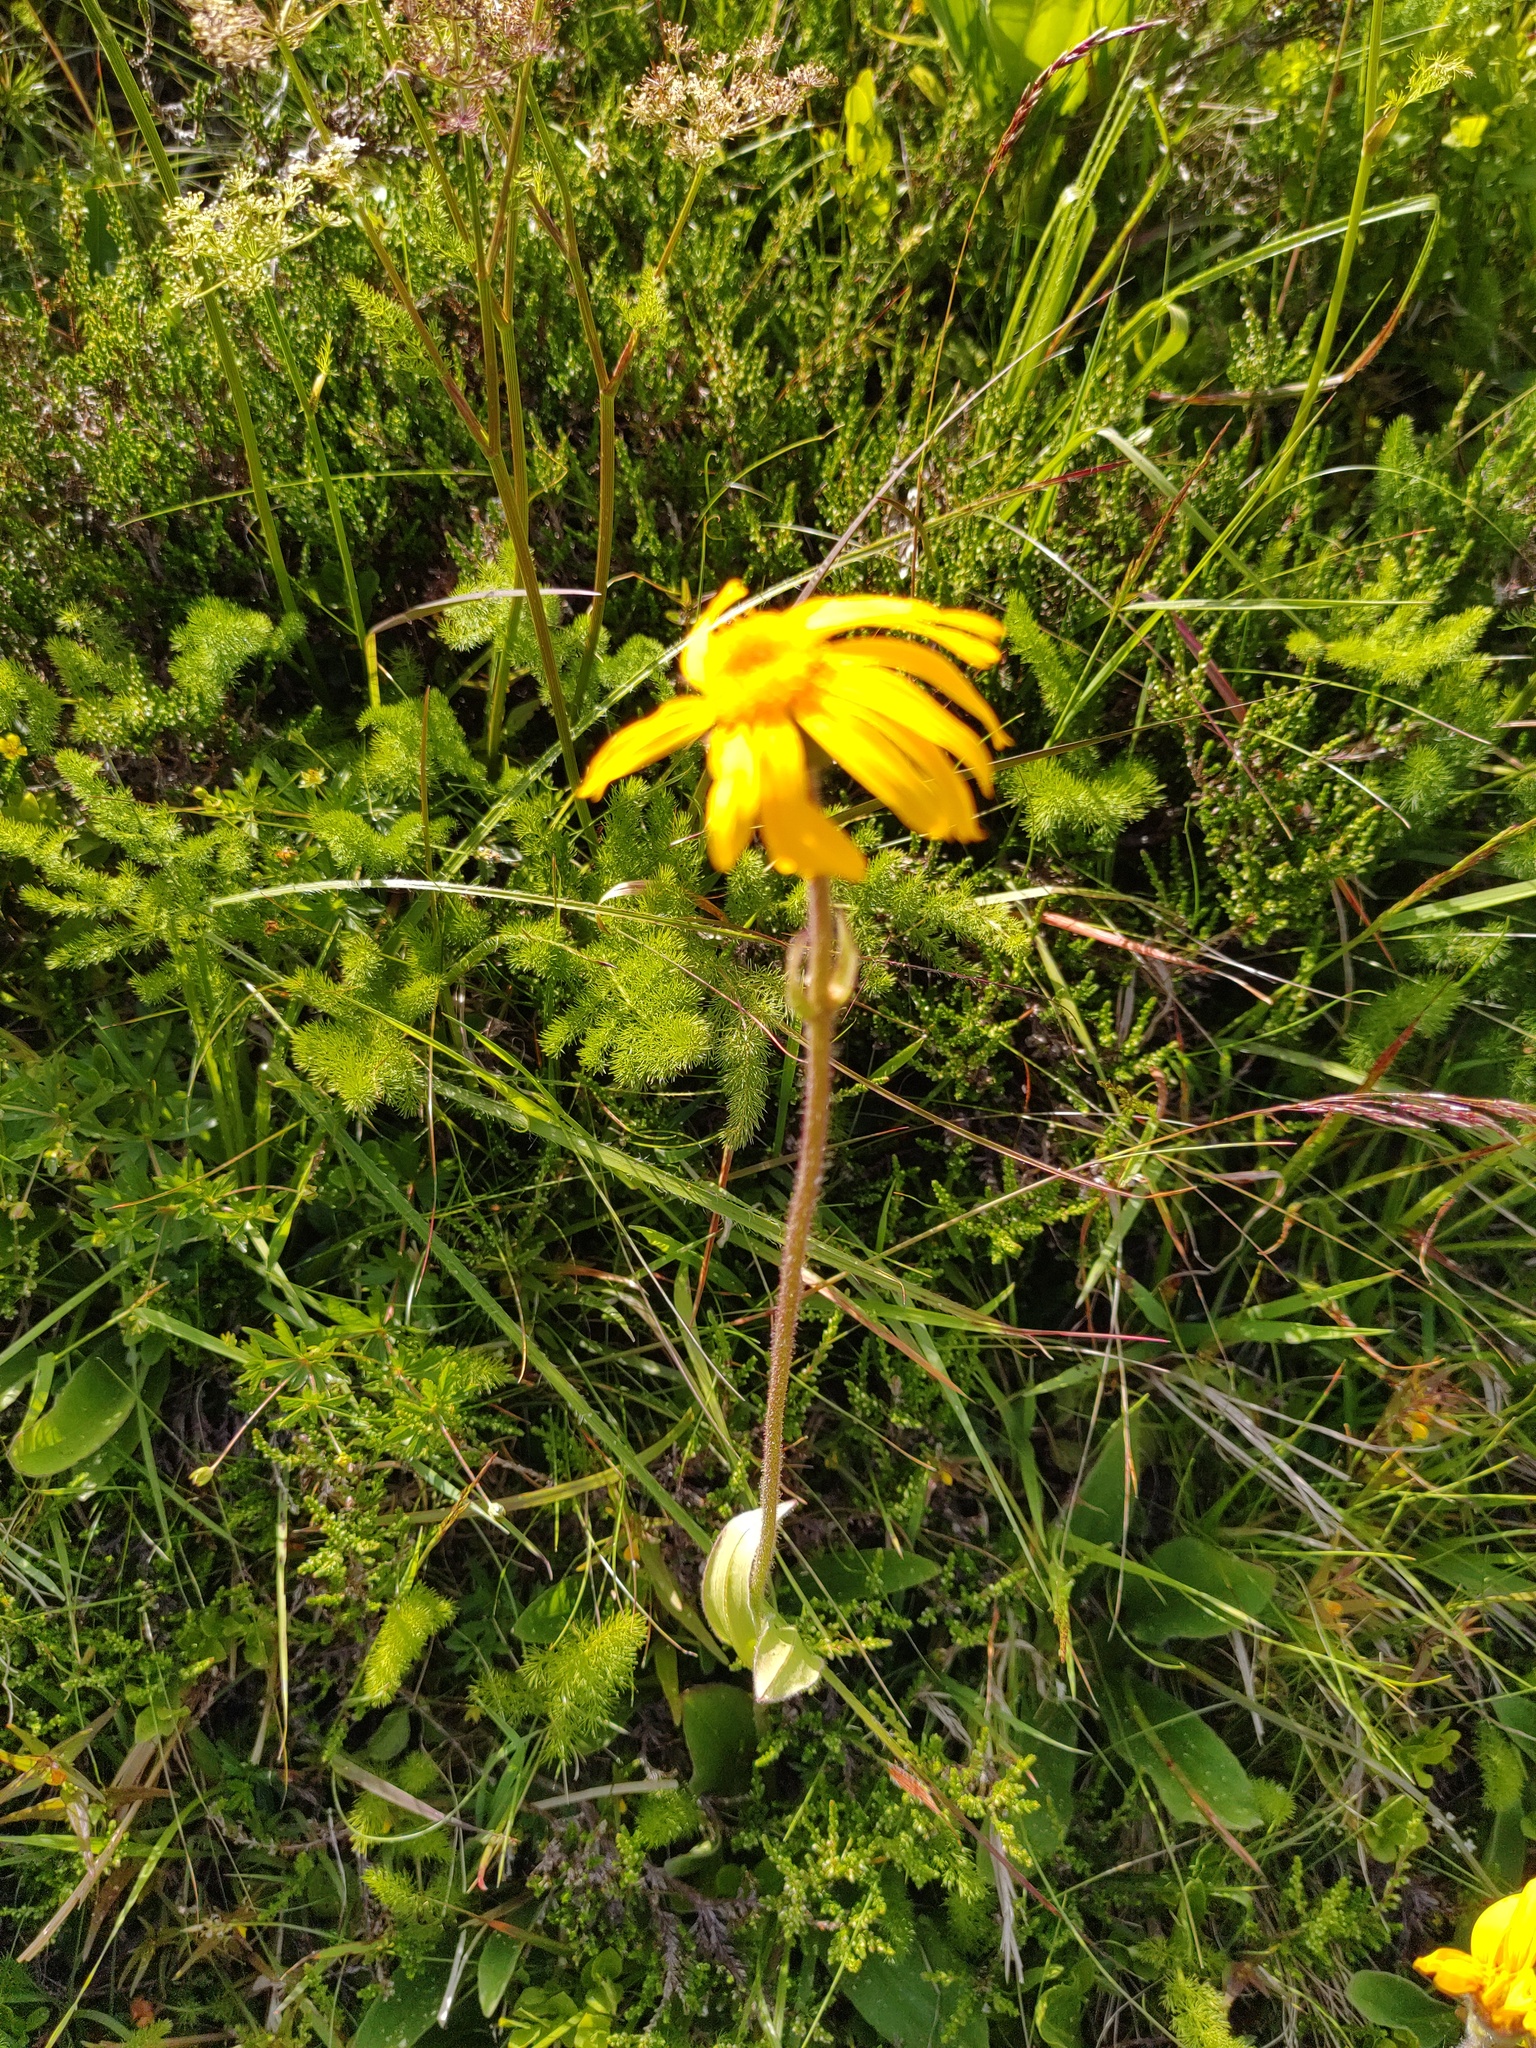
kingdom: Plantae
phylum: Tracheophyta
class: Magnoliopsida
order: Asterales
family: Asteraceae
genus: Arnica
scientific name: Arnica montana
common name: Leopard's bane
